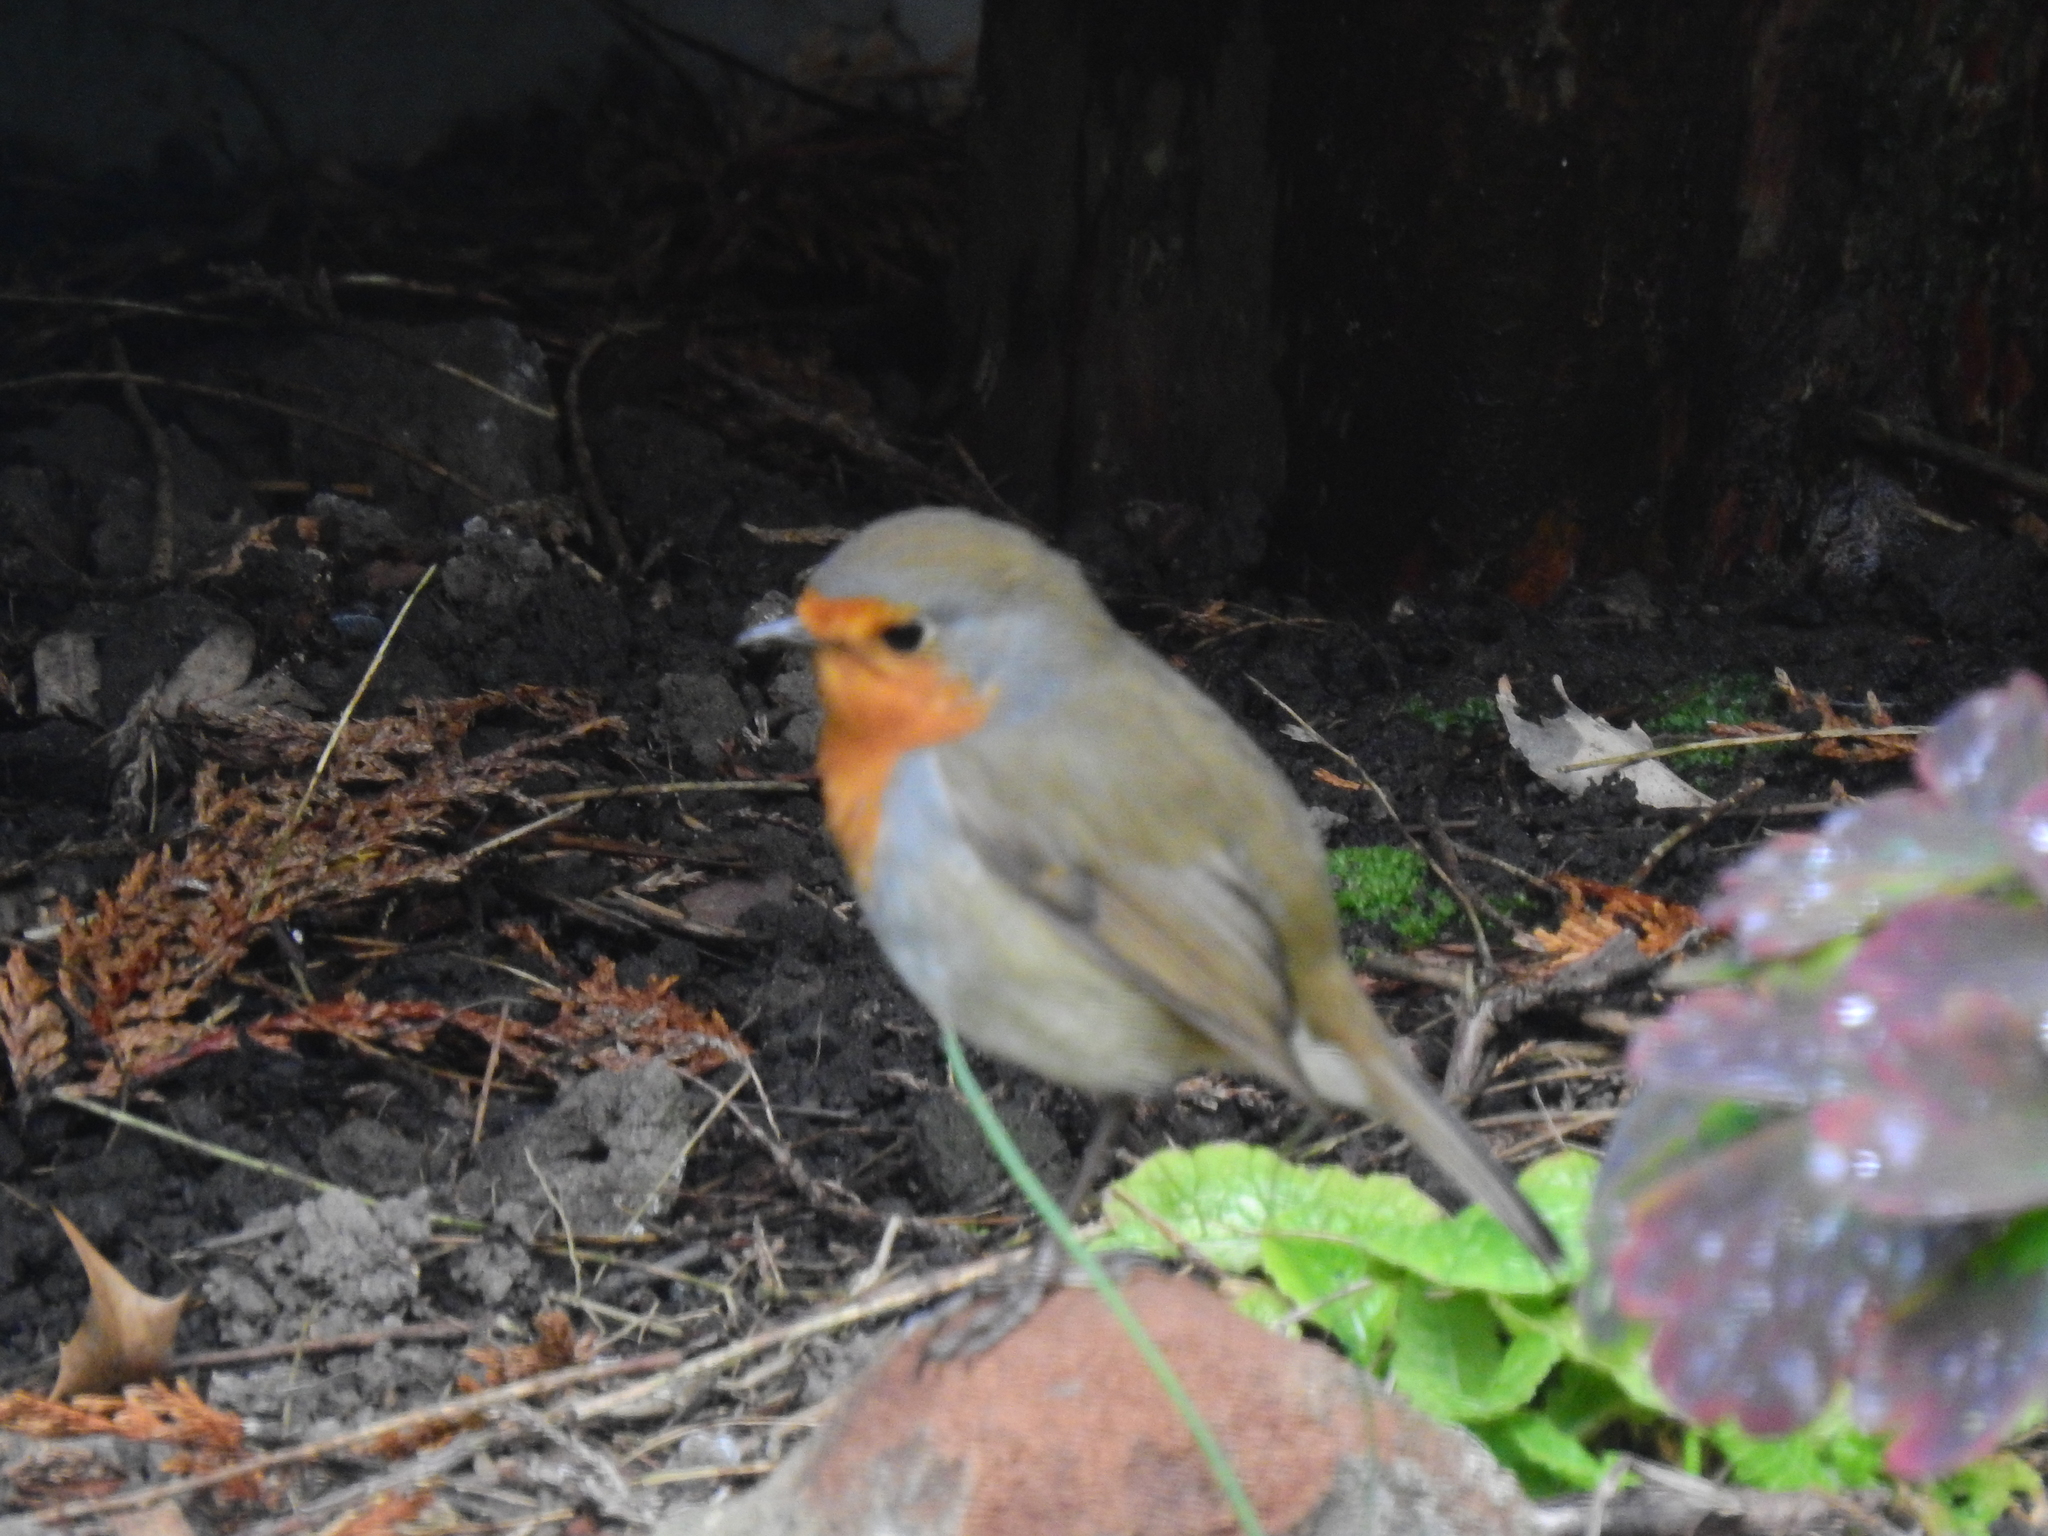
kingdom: Animalia
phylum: Chordata
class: Aves
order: Passeriformes
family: Muscicapidae
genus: Erithacus
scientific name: Erithacus rubecula
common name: European robin
